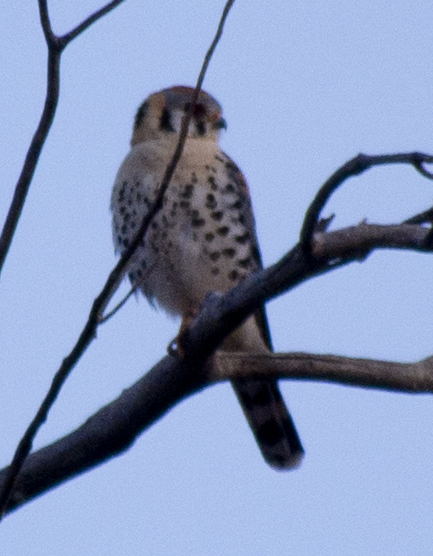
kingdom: Animalia
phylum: Chordata
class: Aves
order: Falconiformes
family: Falconidae
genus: Falco
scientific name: Falco sparverius
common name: American kestrel
